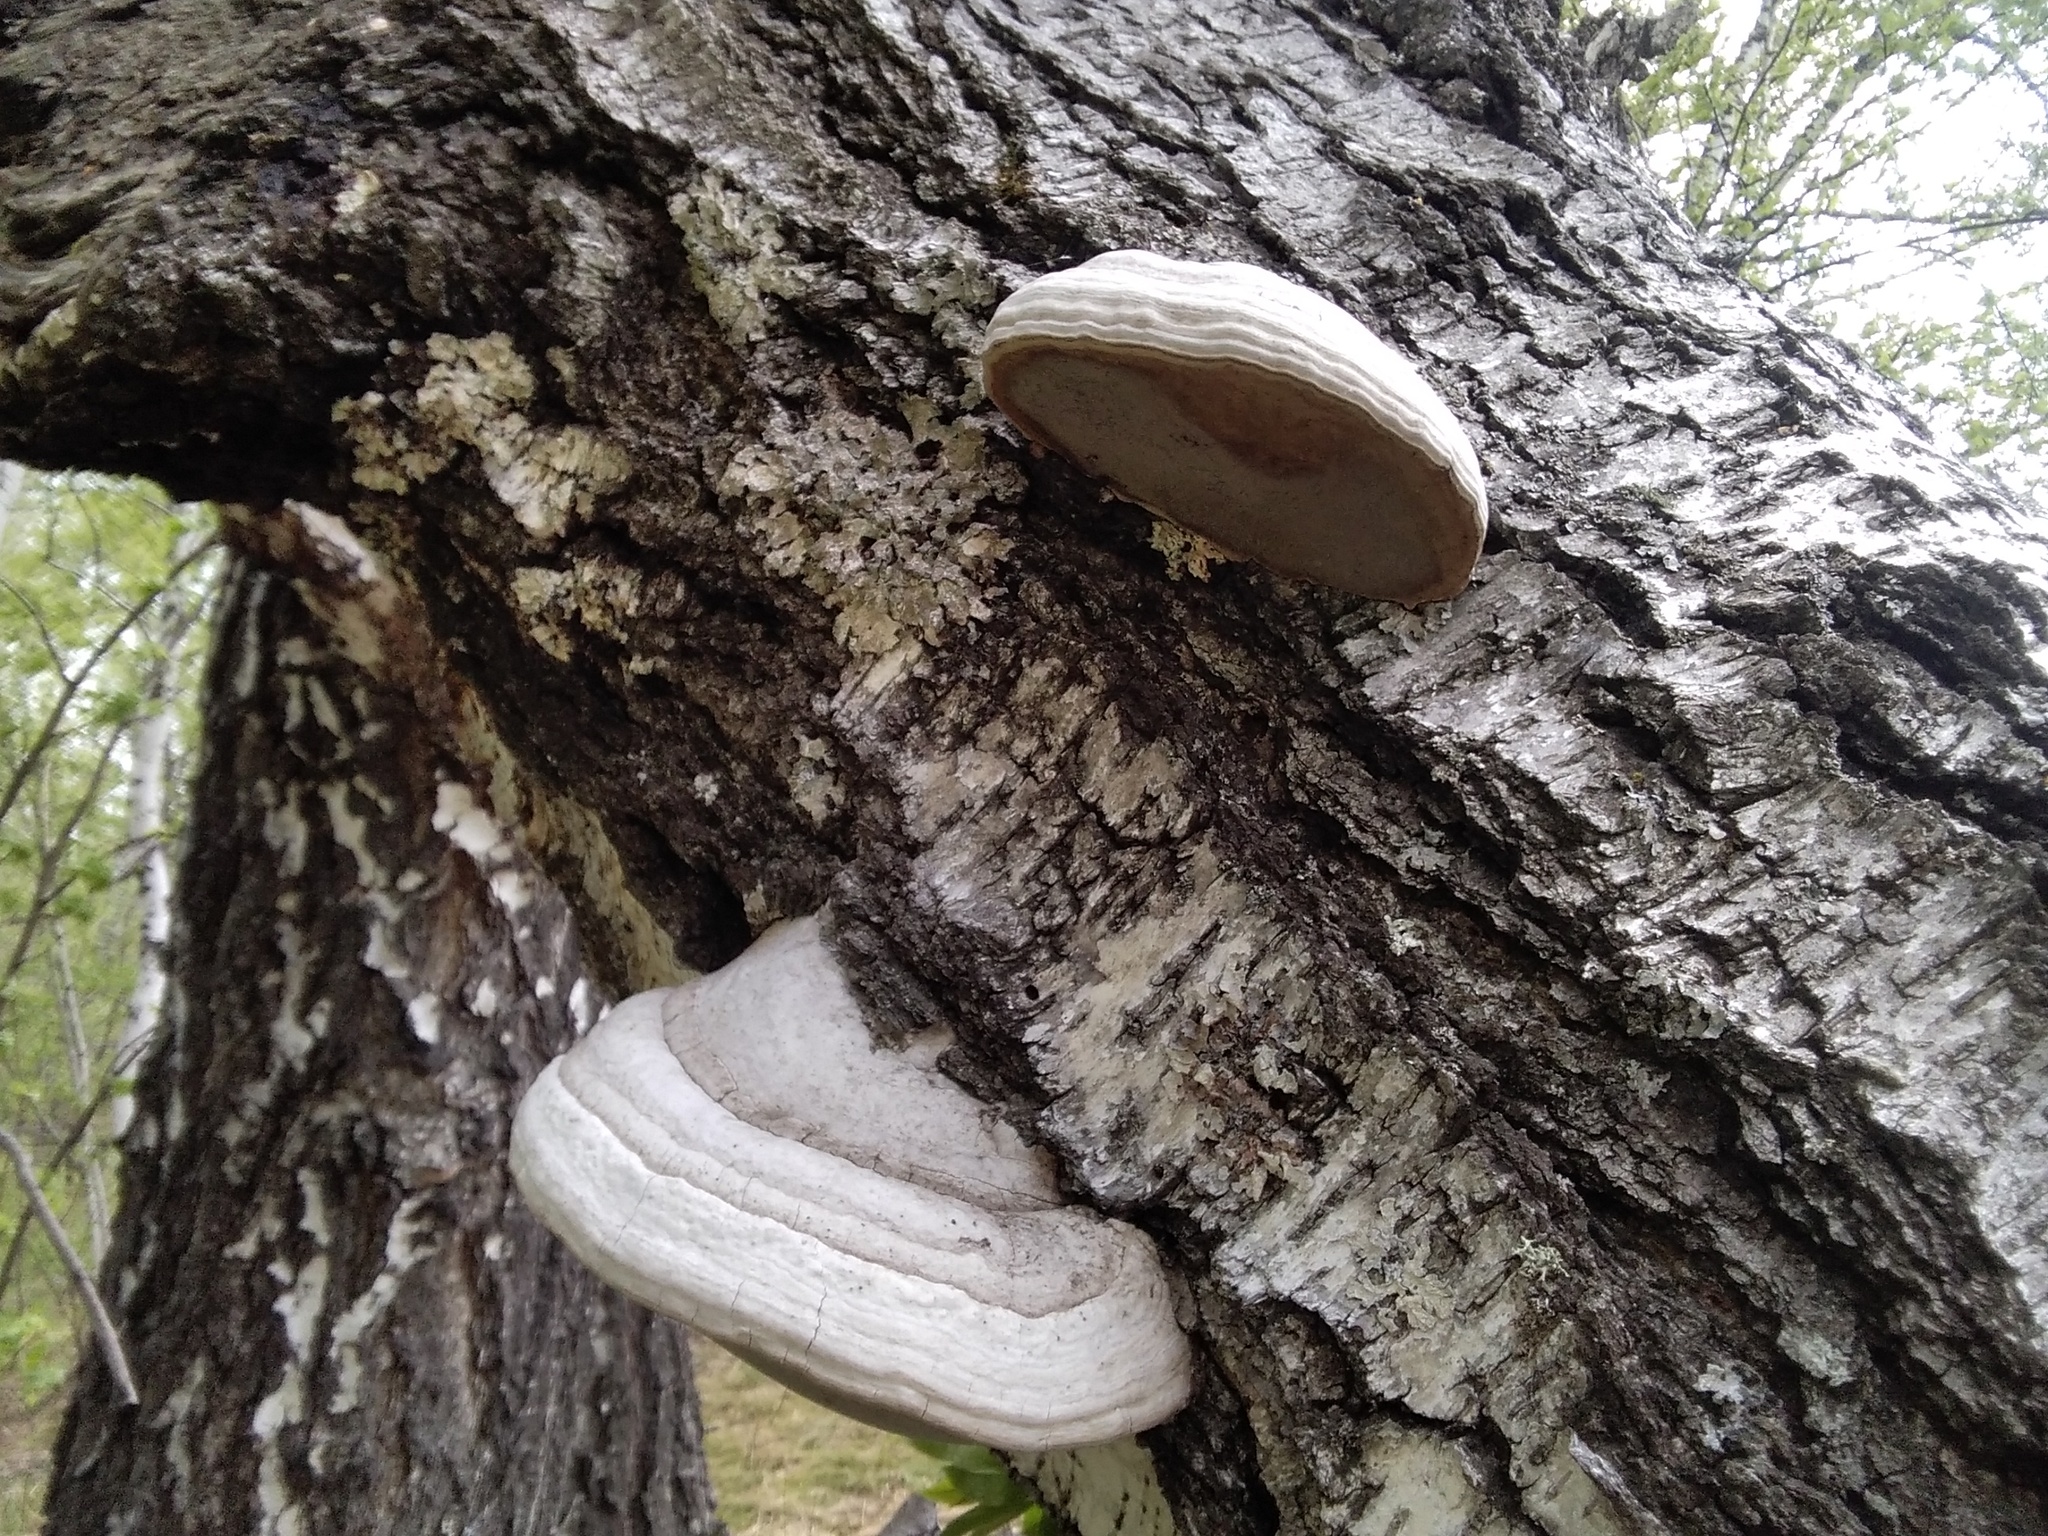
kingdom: Fungi
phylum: Basidiomycota
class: Agaricomycetes
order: Polyporales
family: Polyporaceae
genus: Fomes
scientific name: Fomes fomentarius
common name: Hoof fungus
